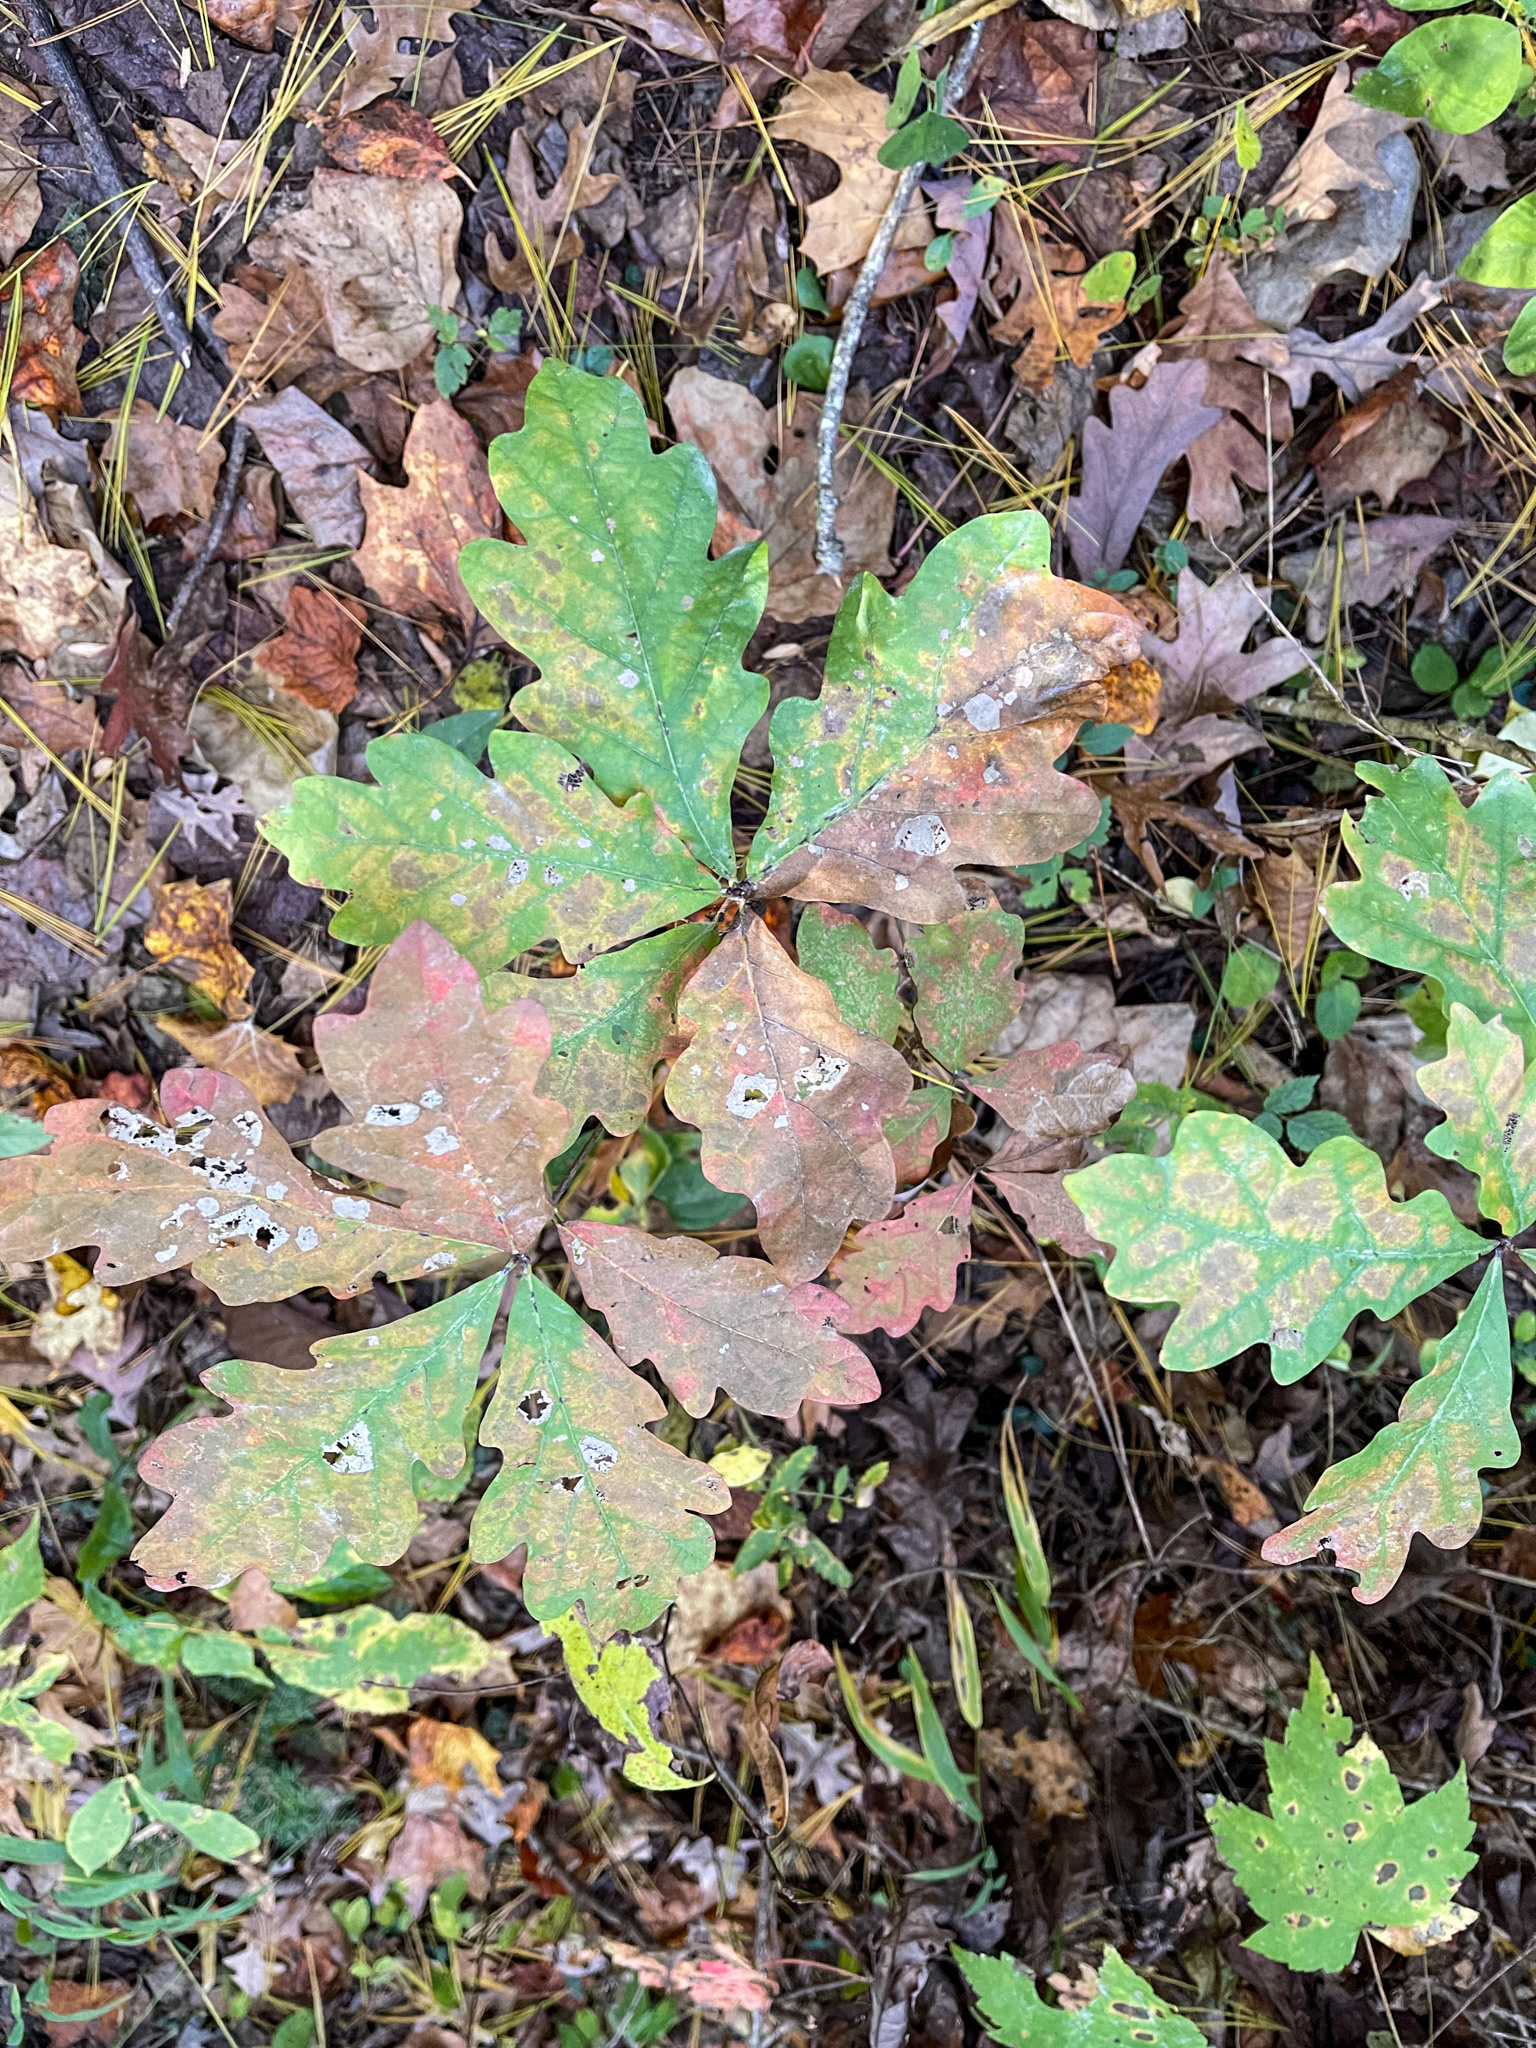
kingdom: Plantae
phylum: Tracheophyta
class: Magnoliopsida
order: Fagales
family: Fagaceae
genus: Quercus
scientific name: Quercus alba
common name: White oak
